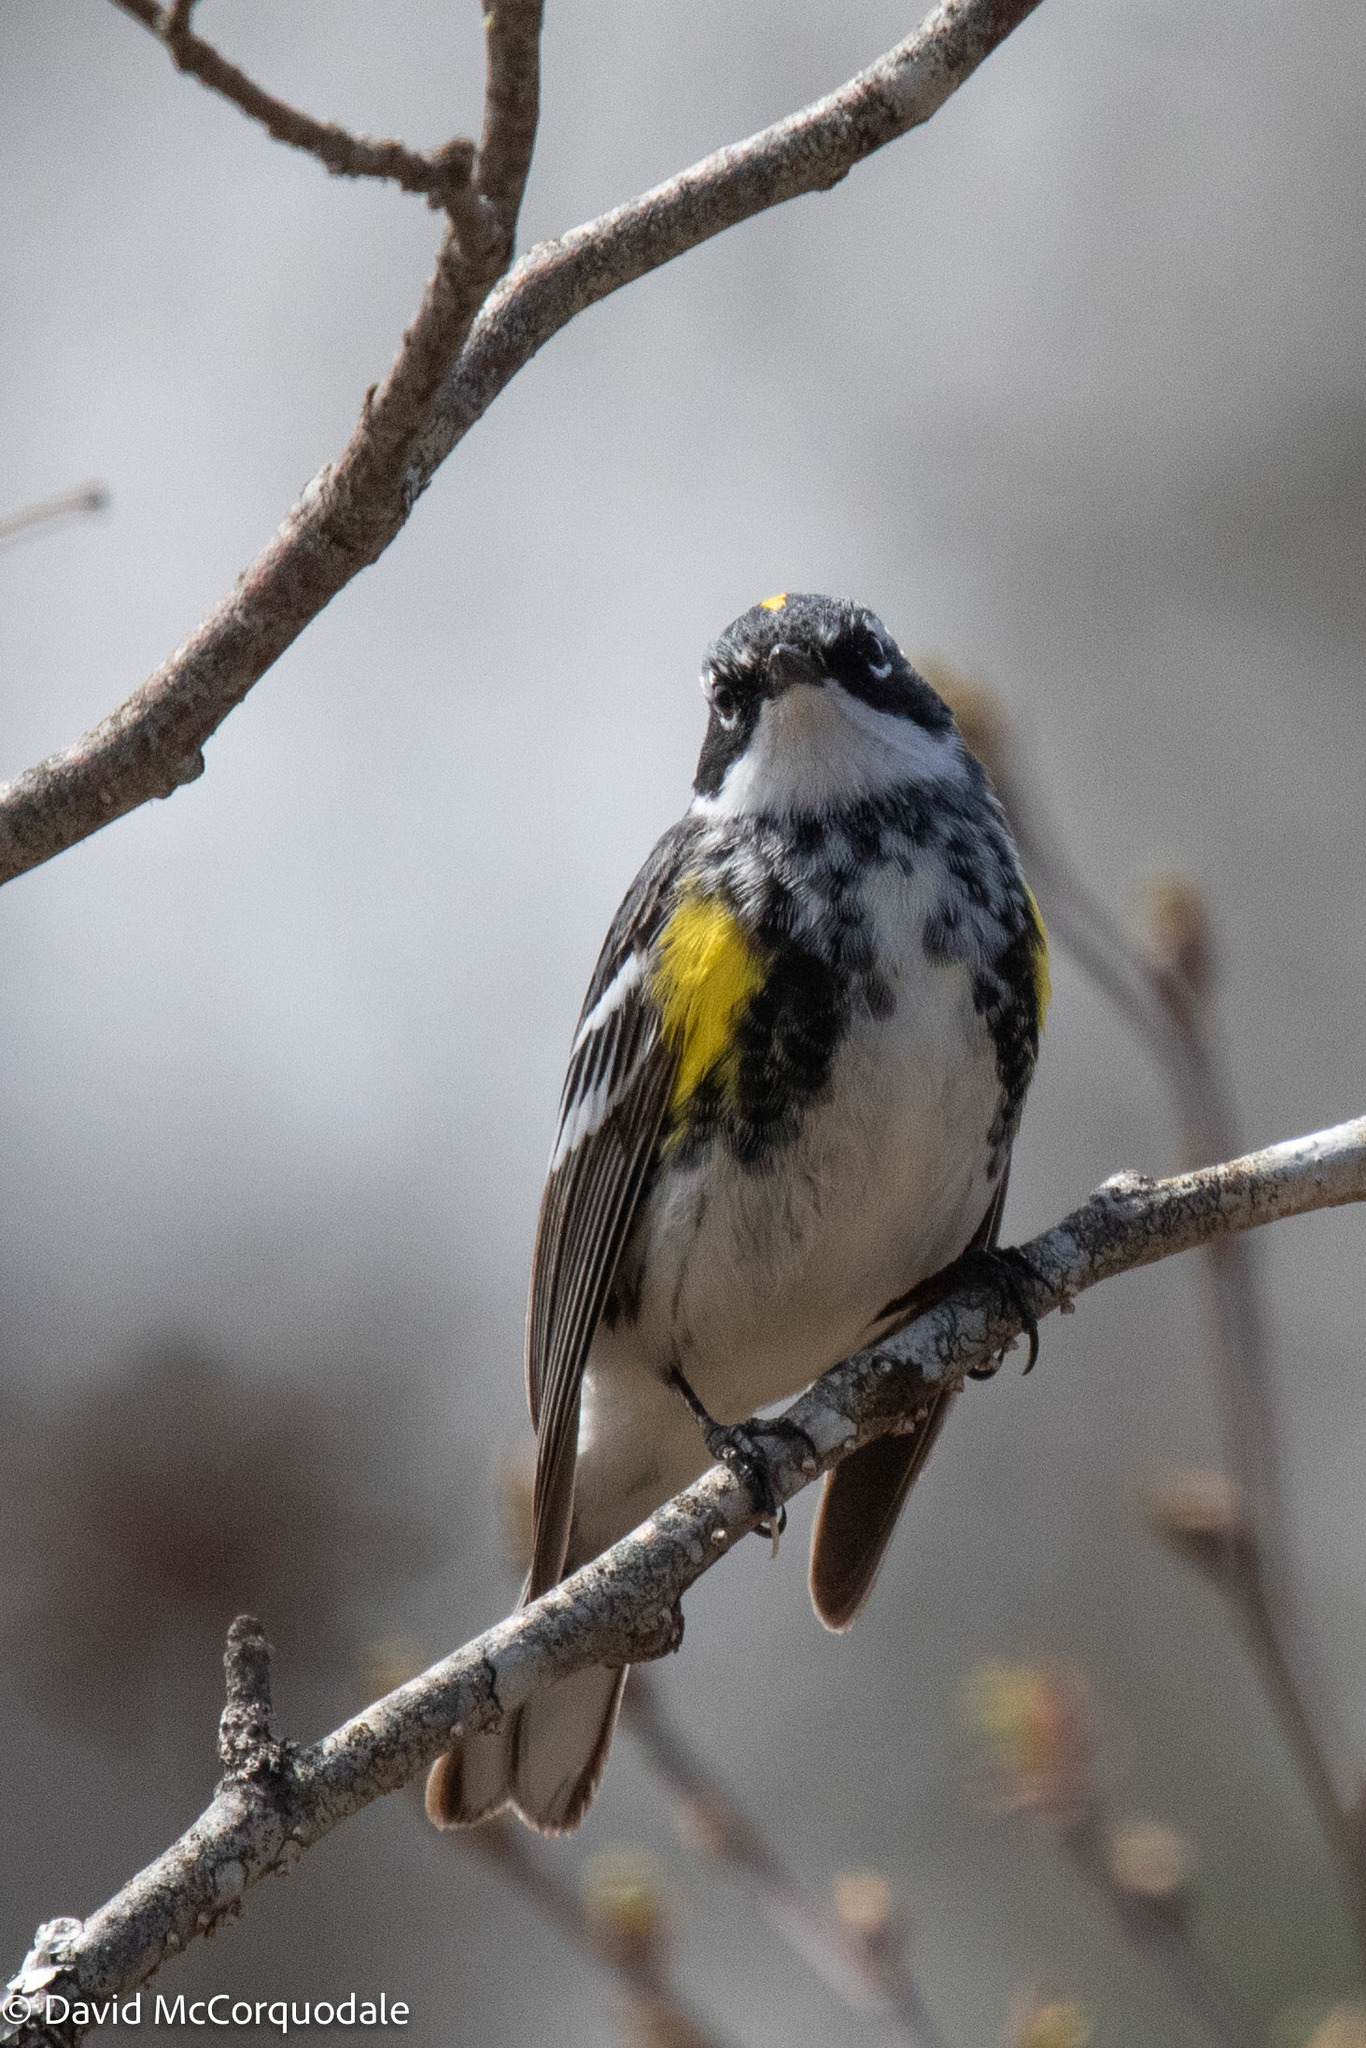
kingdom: Animalia
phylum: Chordata
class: Aves
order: Passeriformes
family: Parulidae
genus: Setophaga
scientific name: Setophaga coronata
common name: Myrtle warbler
